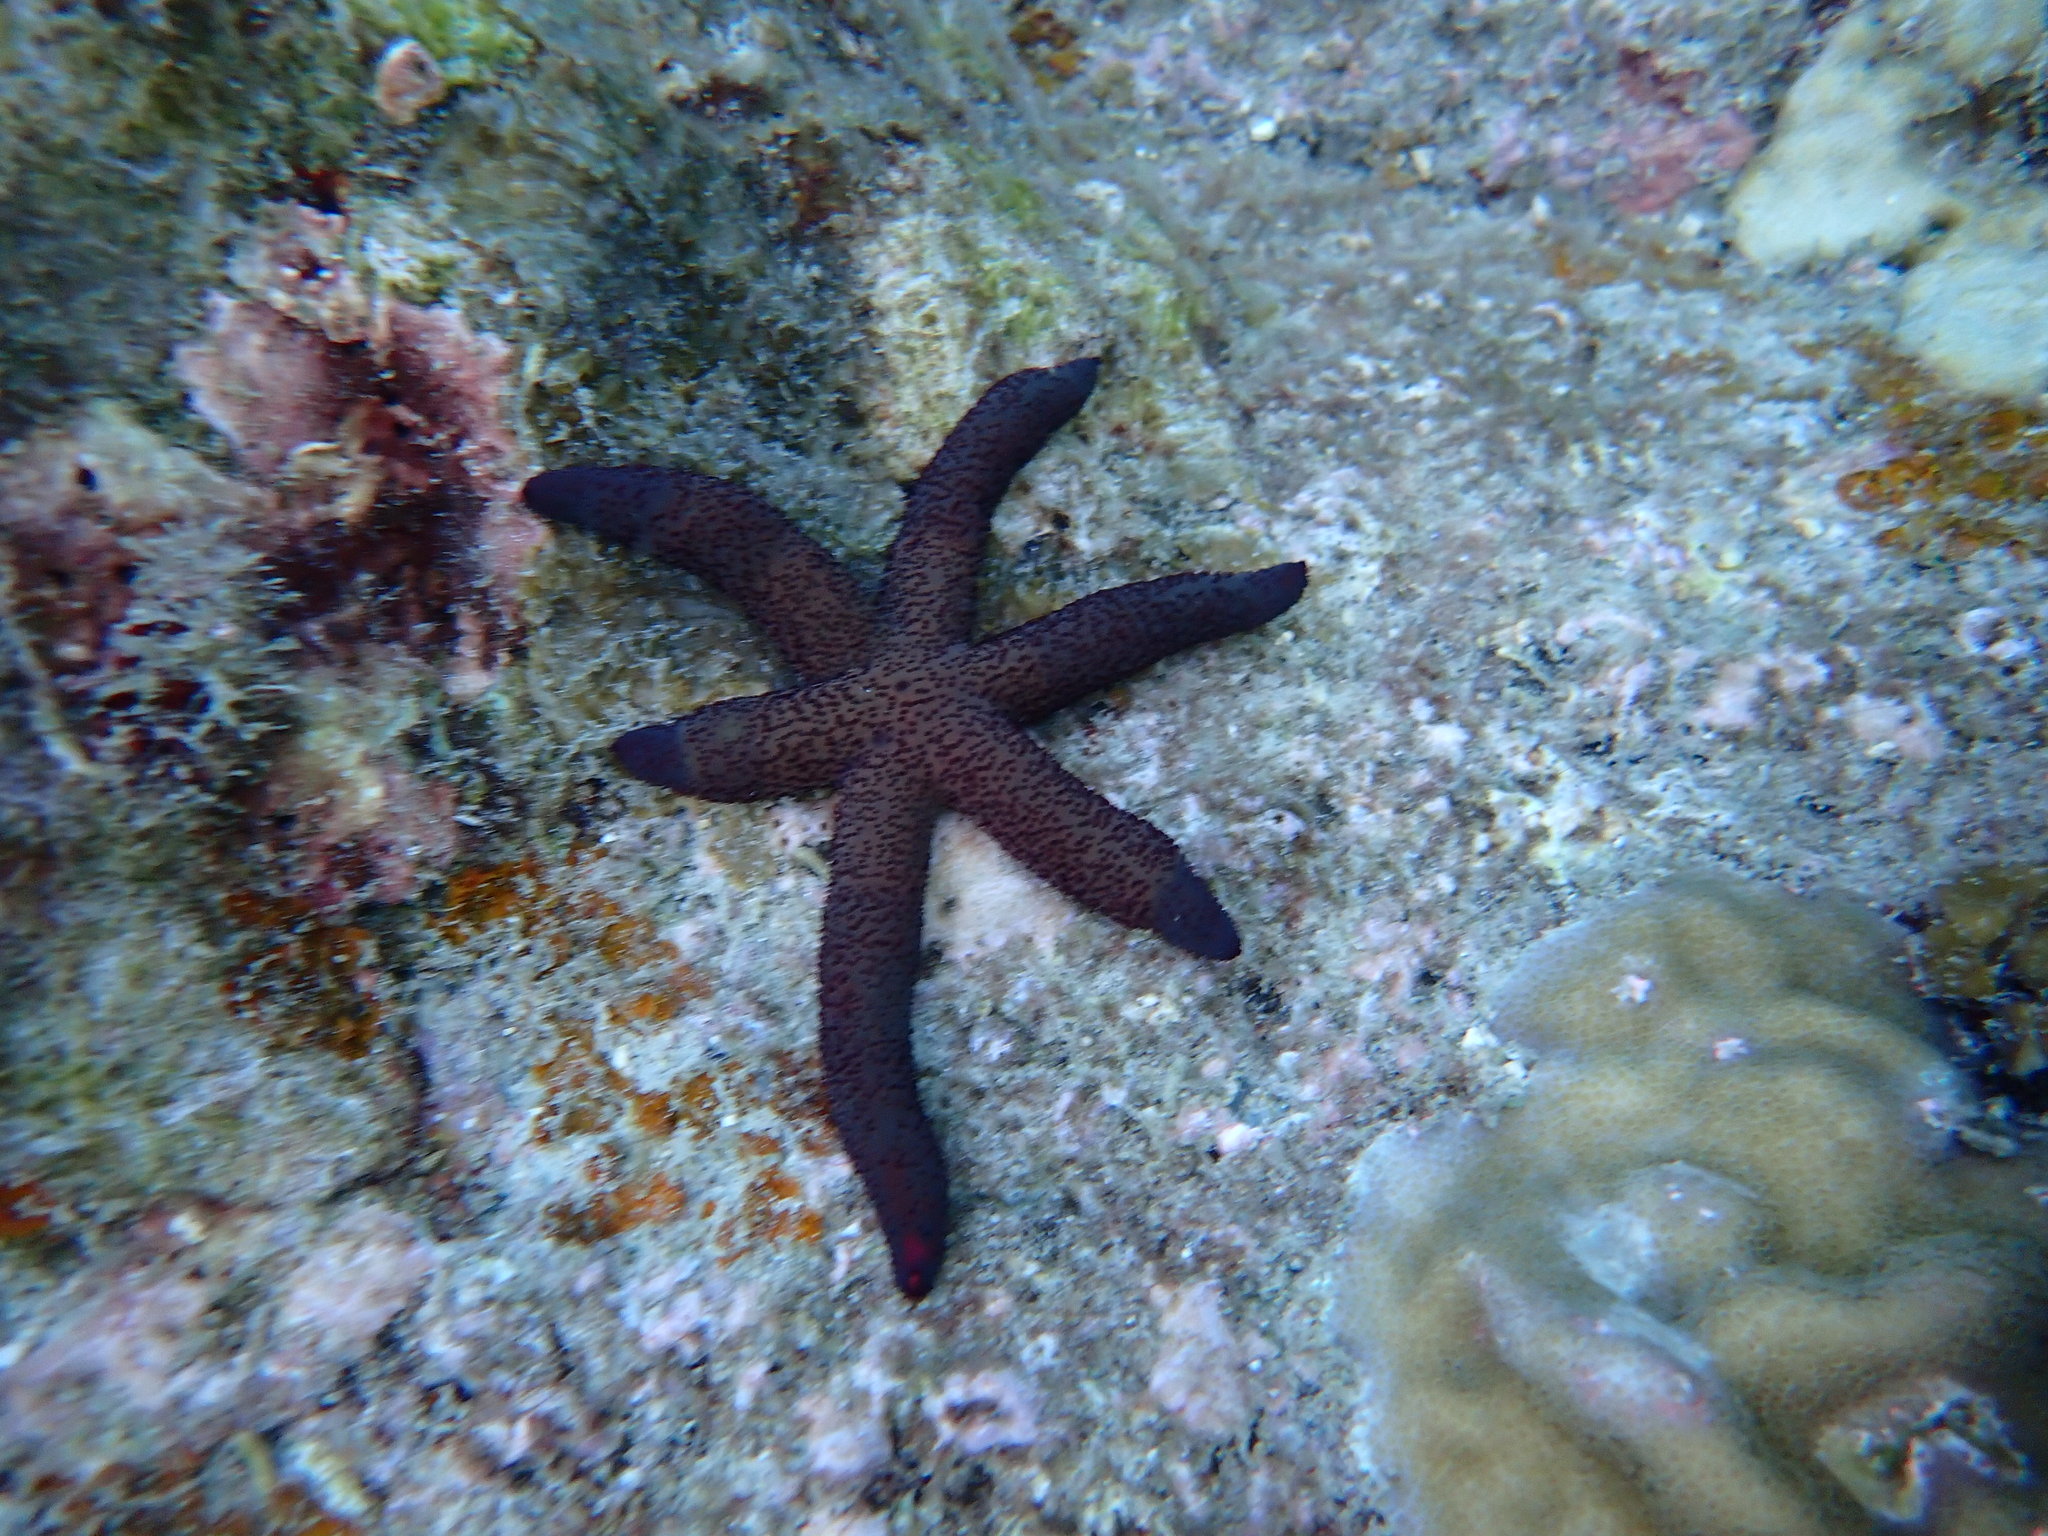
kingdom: Animalia
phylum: Echinodermata
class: Asteroidea
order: Spinulosida
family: Echinasteridae
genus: Echinaster
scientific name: Echinaster luzonicus
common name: Luzon seastar
